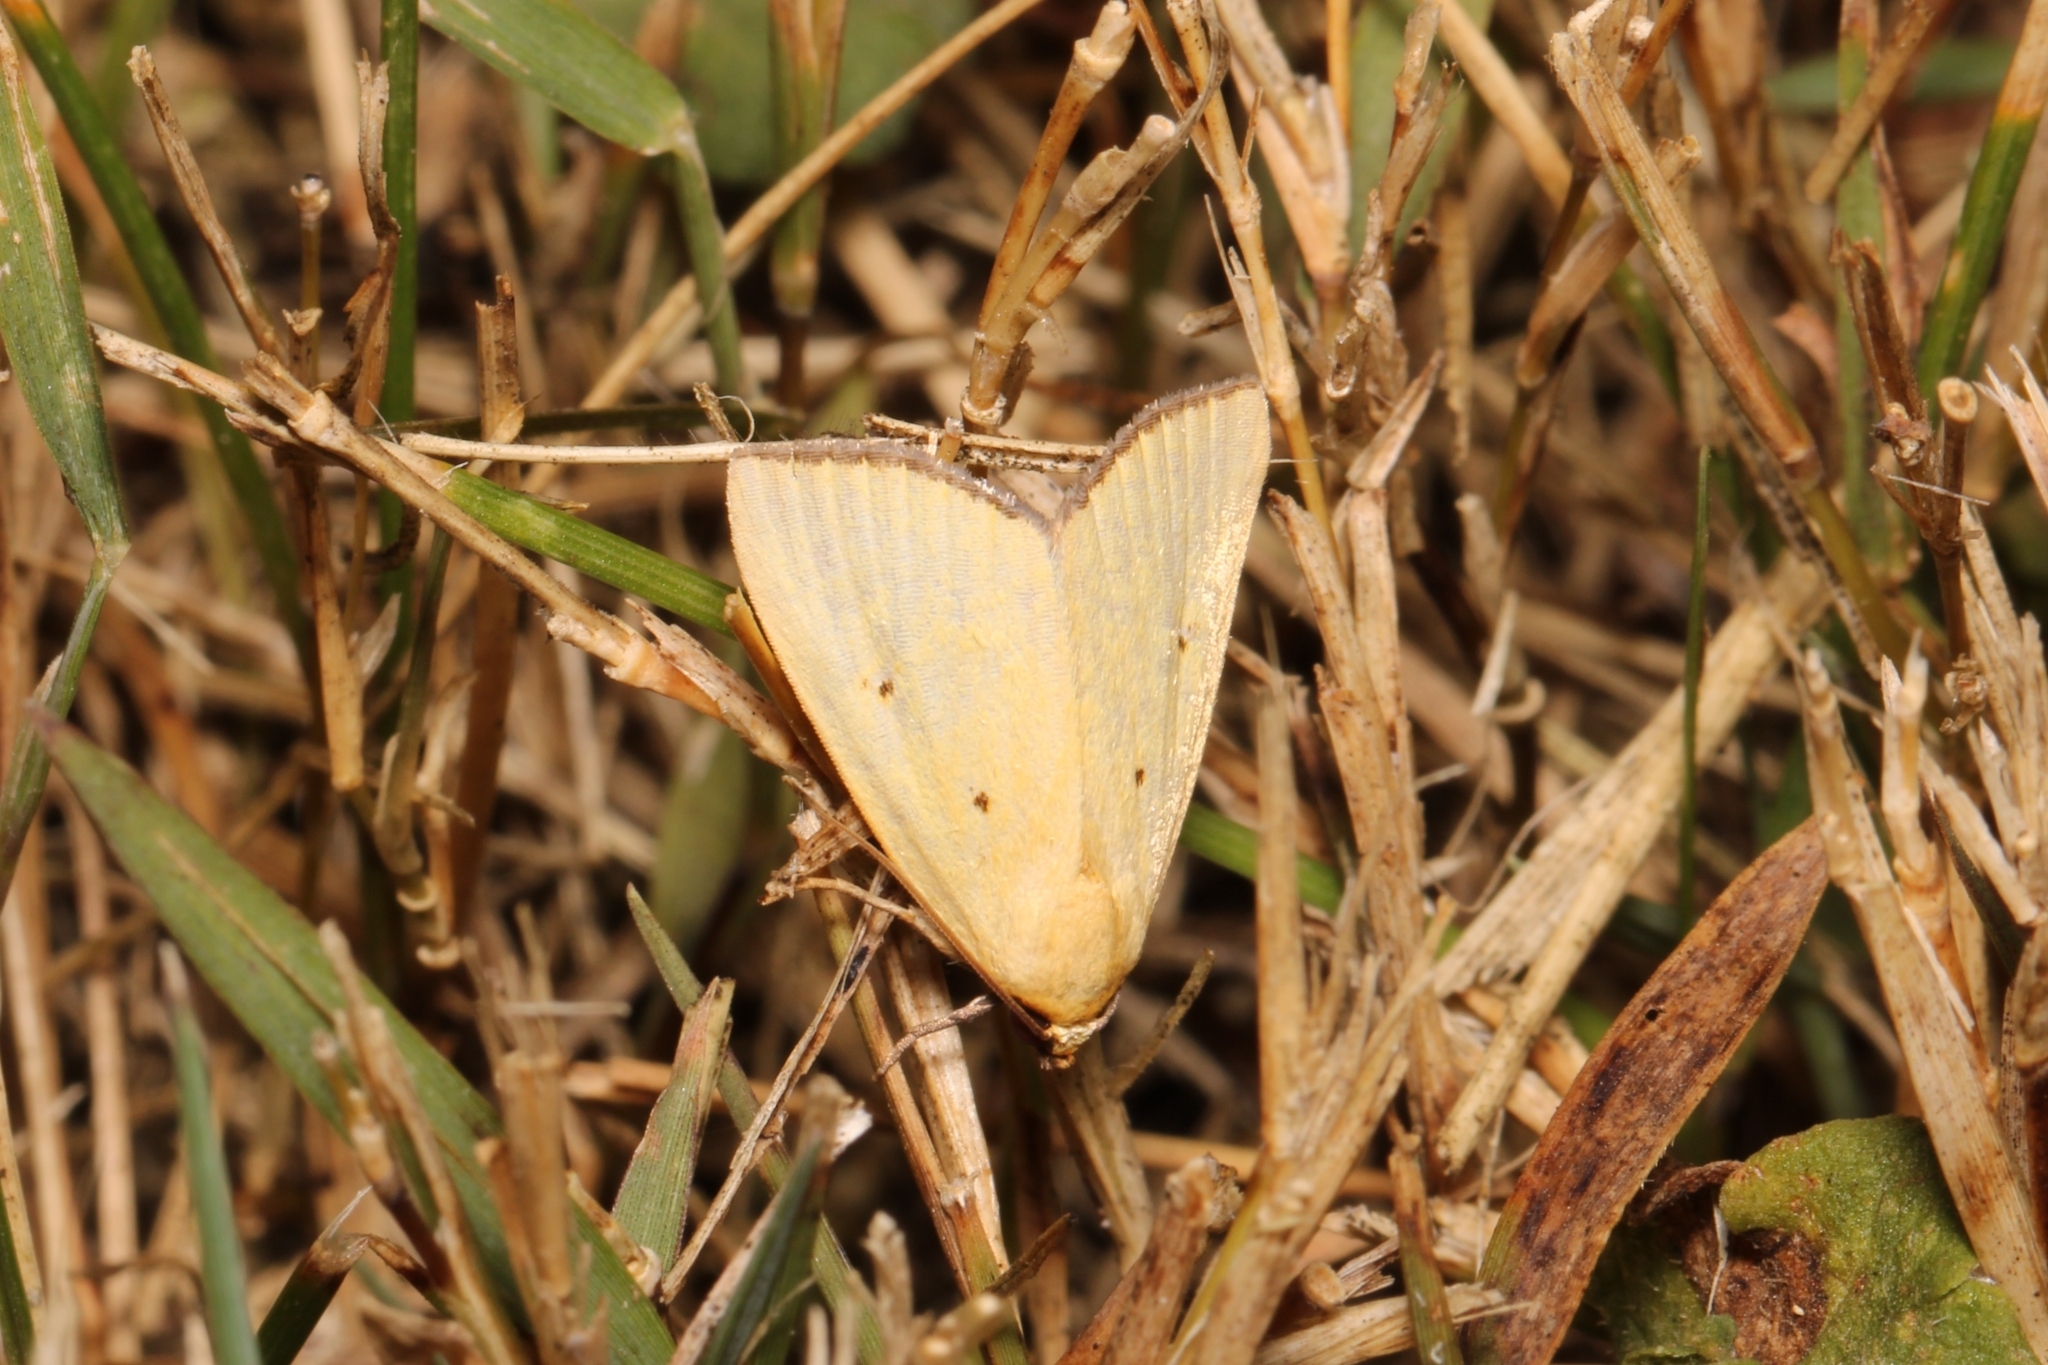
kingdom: Animalia
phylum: Arthropoda
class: Insecta
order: Lepidoptera
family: Noctuidae
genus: Marimatha
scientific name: Marimatha nigrofimbria
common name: Black-bordered lemon moth
